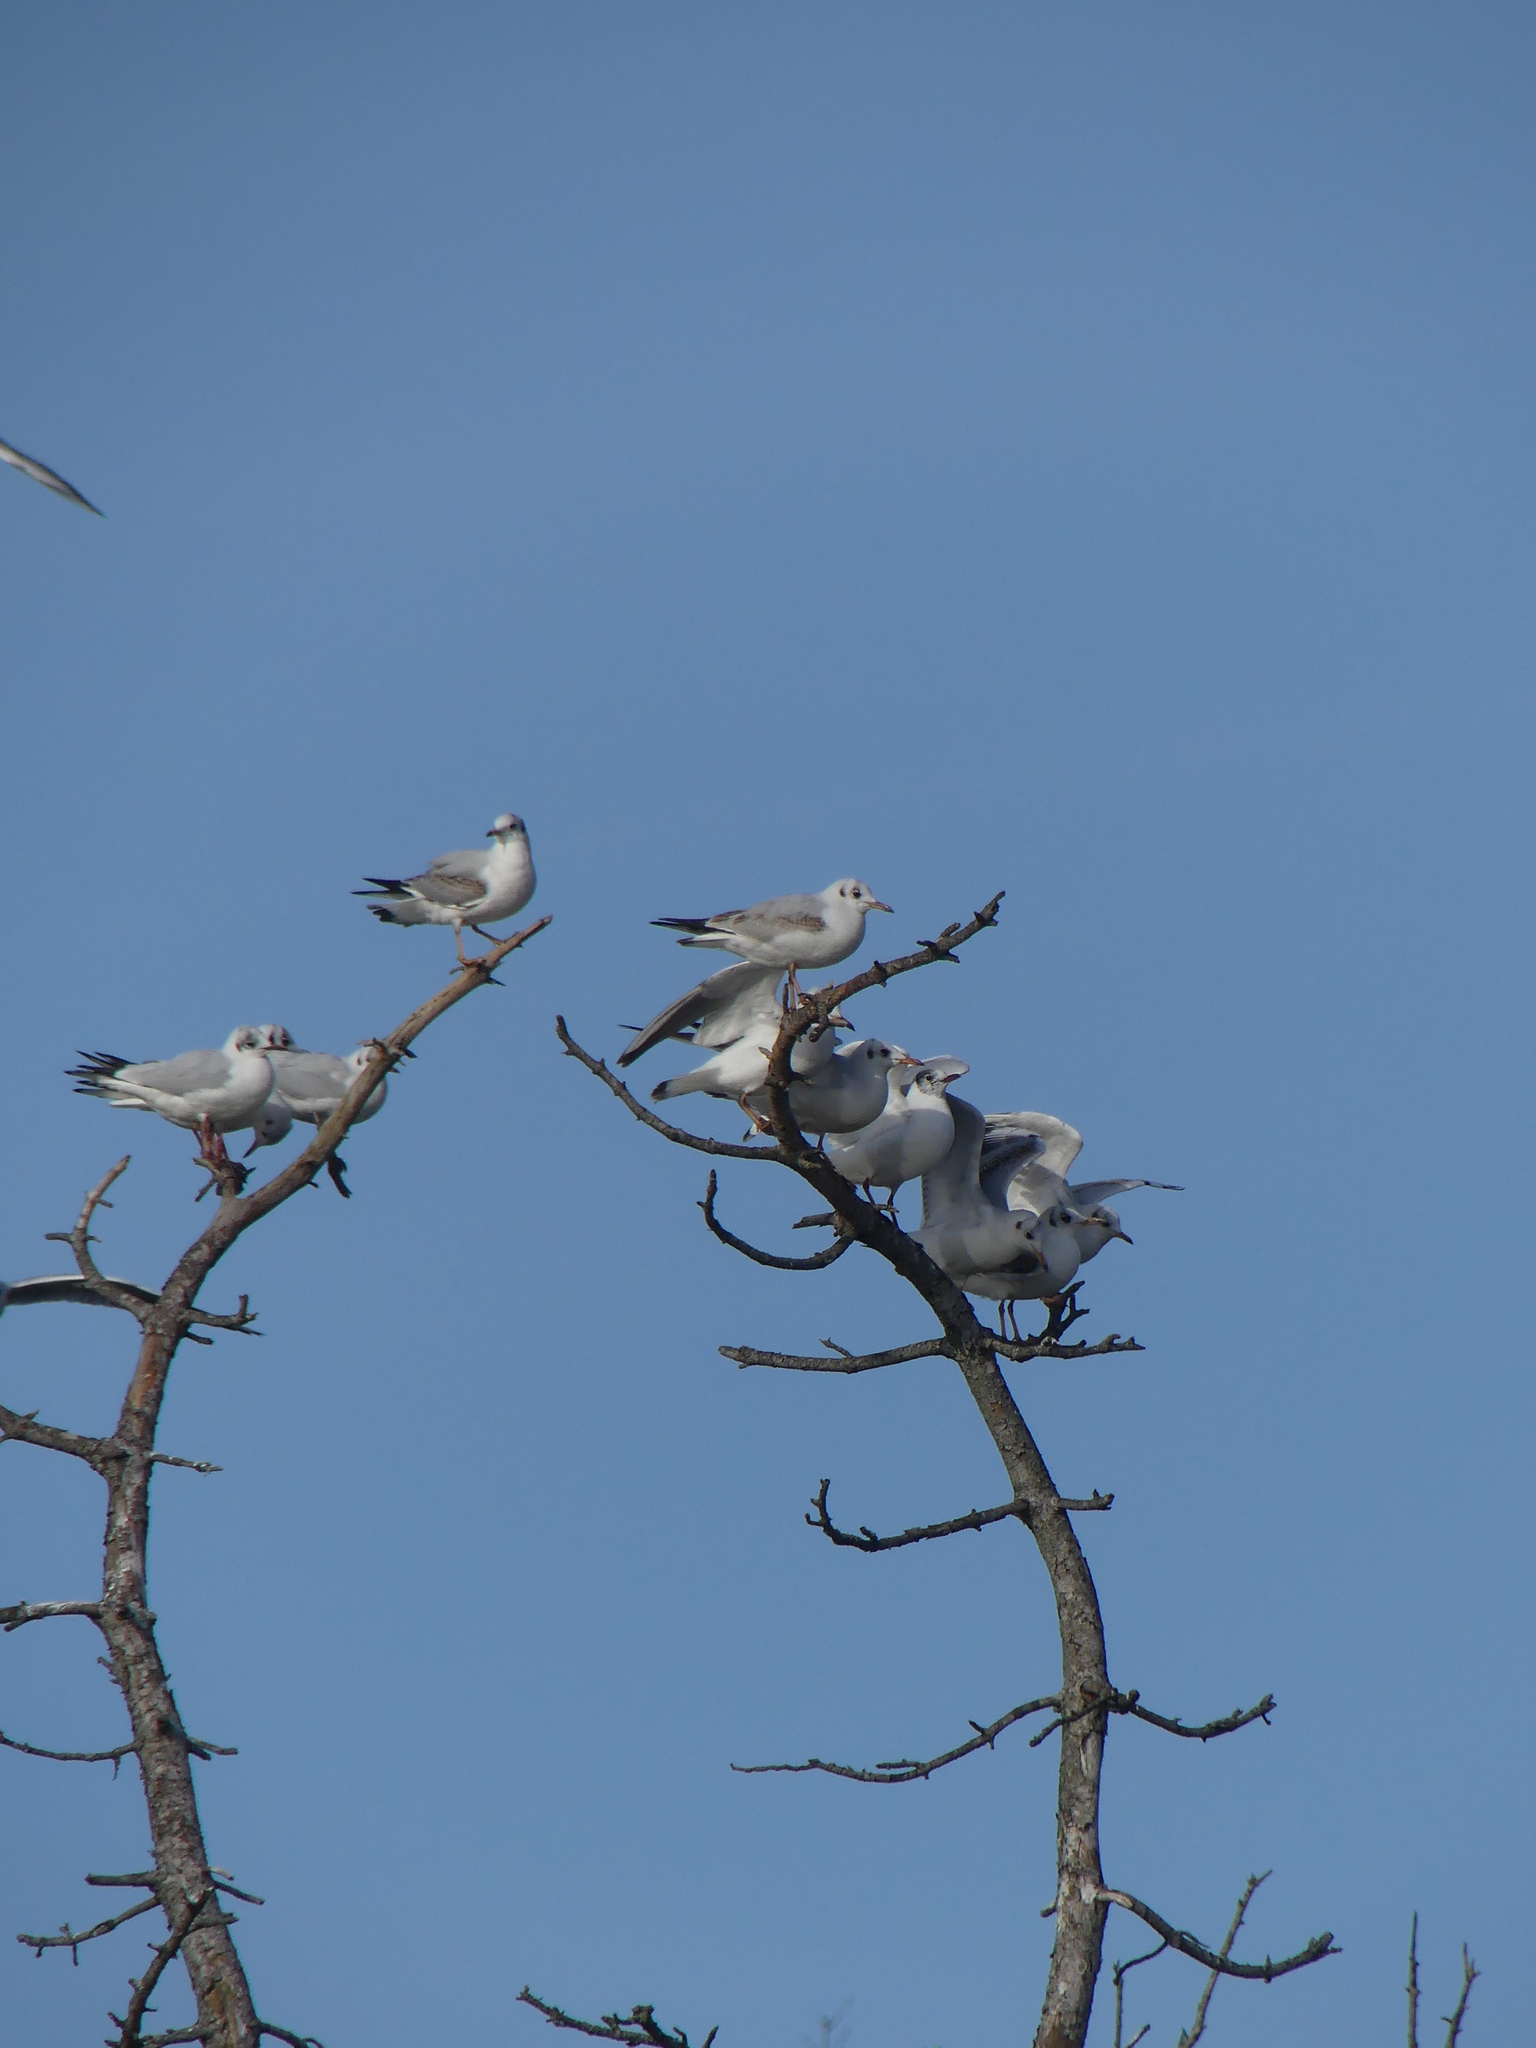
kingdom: Animalia
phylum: Chordata
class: Aves
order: Charadriiformes
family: Laridae
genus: Chroicocephalus
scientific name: Chroicocephalus ridibundus
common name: Black-headed gull
